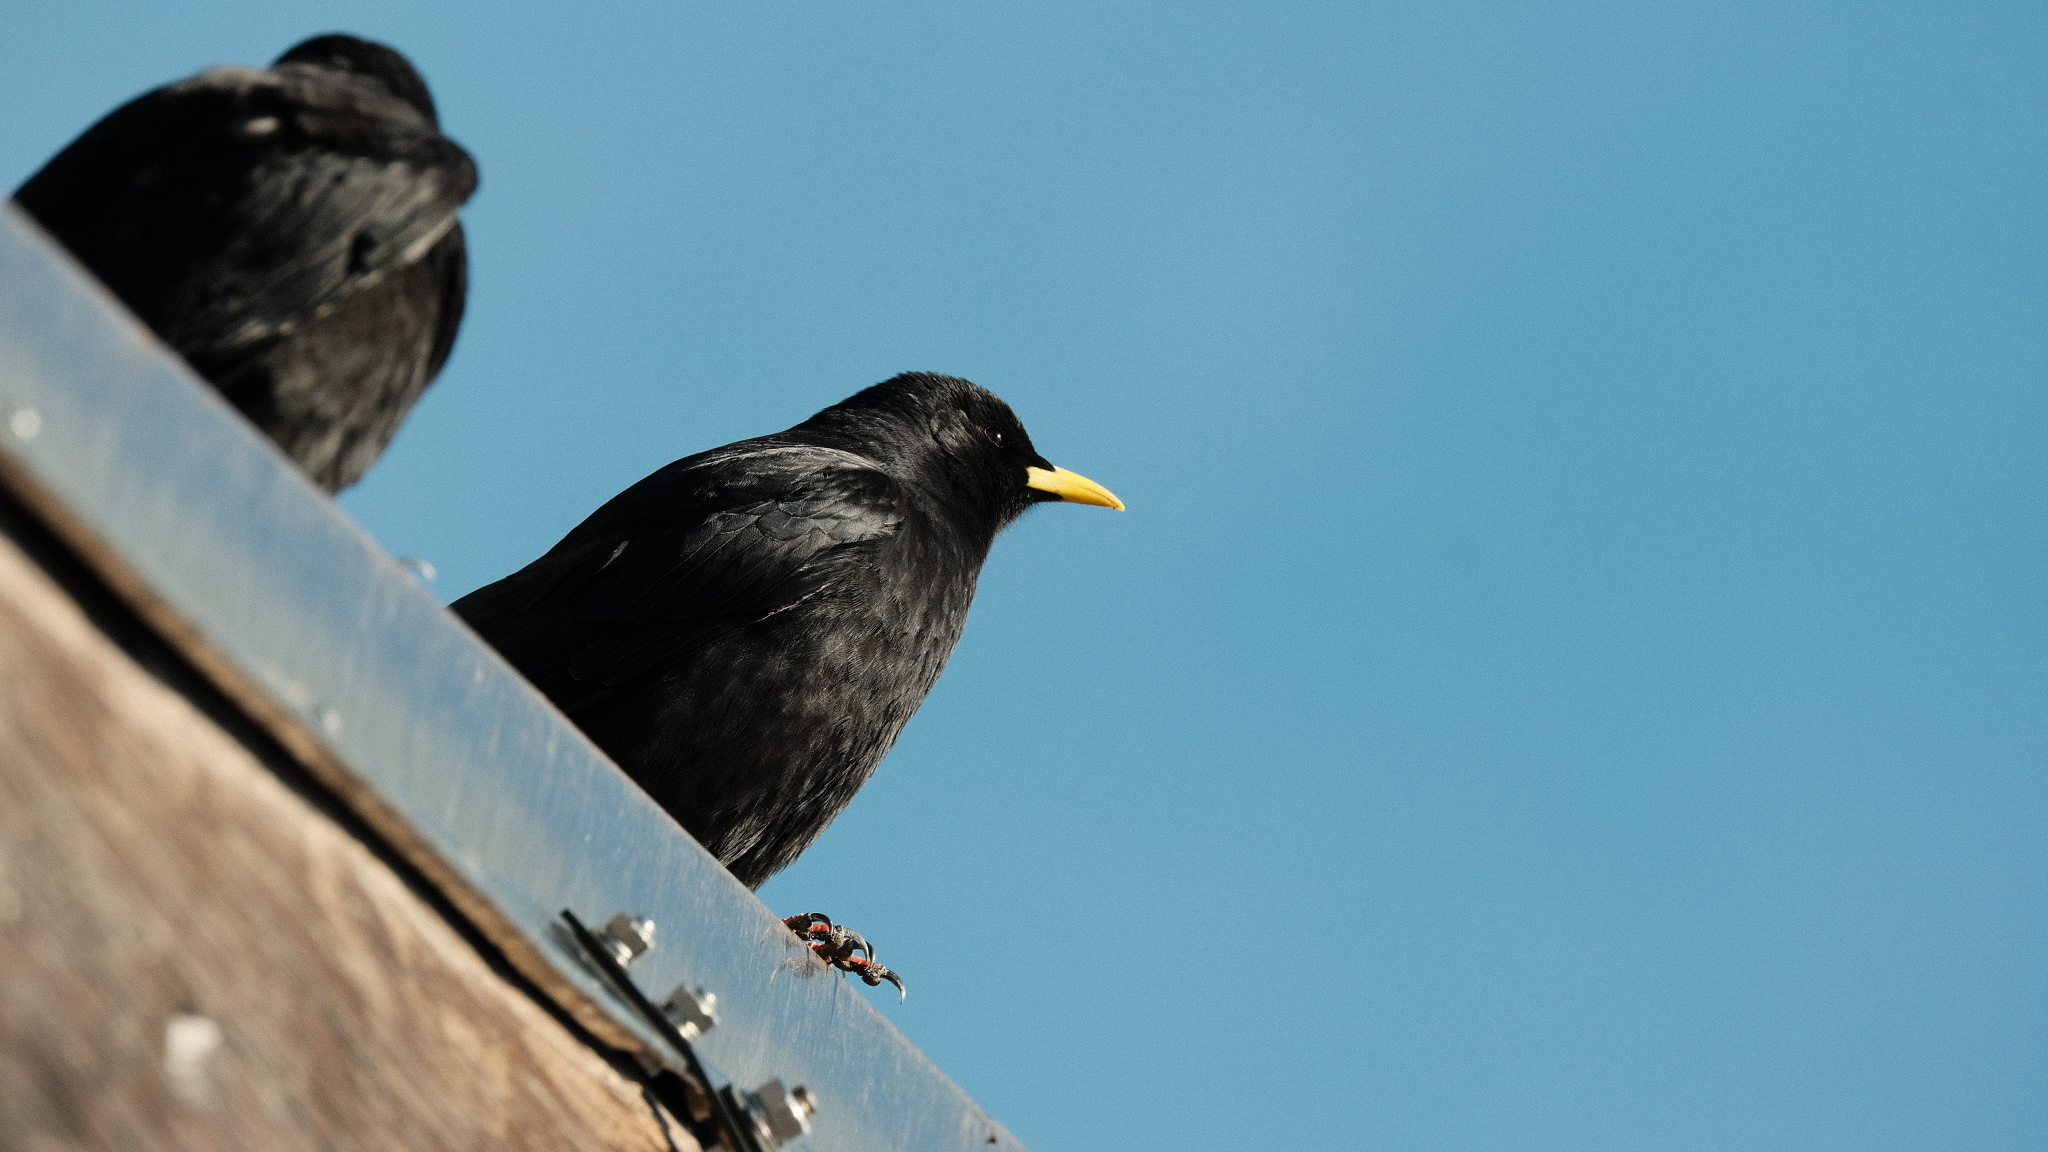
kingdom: Animalia
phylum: Chordata
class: Aves
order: Passeriformes
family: Corvidae
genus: Pyrrhocorax
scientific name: Pyrrhocorax graculus
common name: Alpine chough
